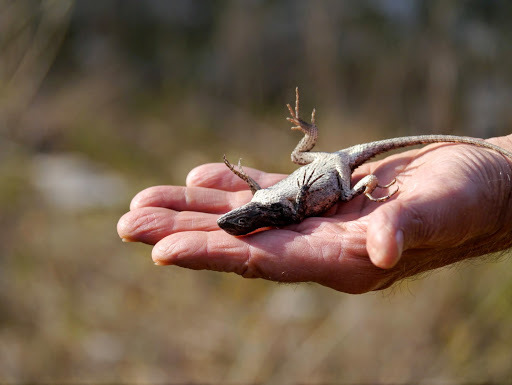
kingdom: Animalia
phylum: Chordata
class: Squamata
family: Phrynosomatidae
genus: Sceloporus
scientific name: Sceloporus olivaceus
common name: Texas spiny lizard
